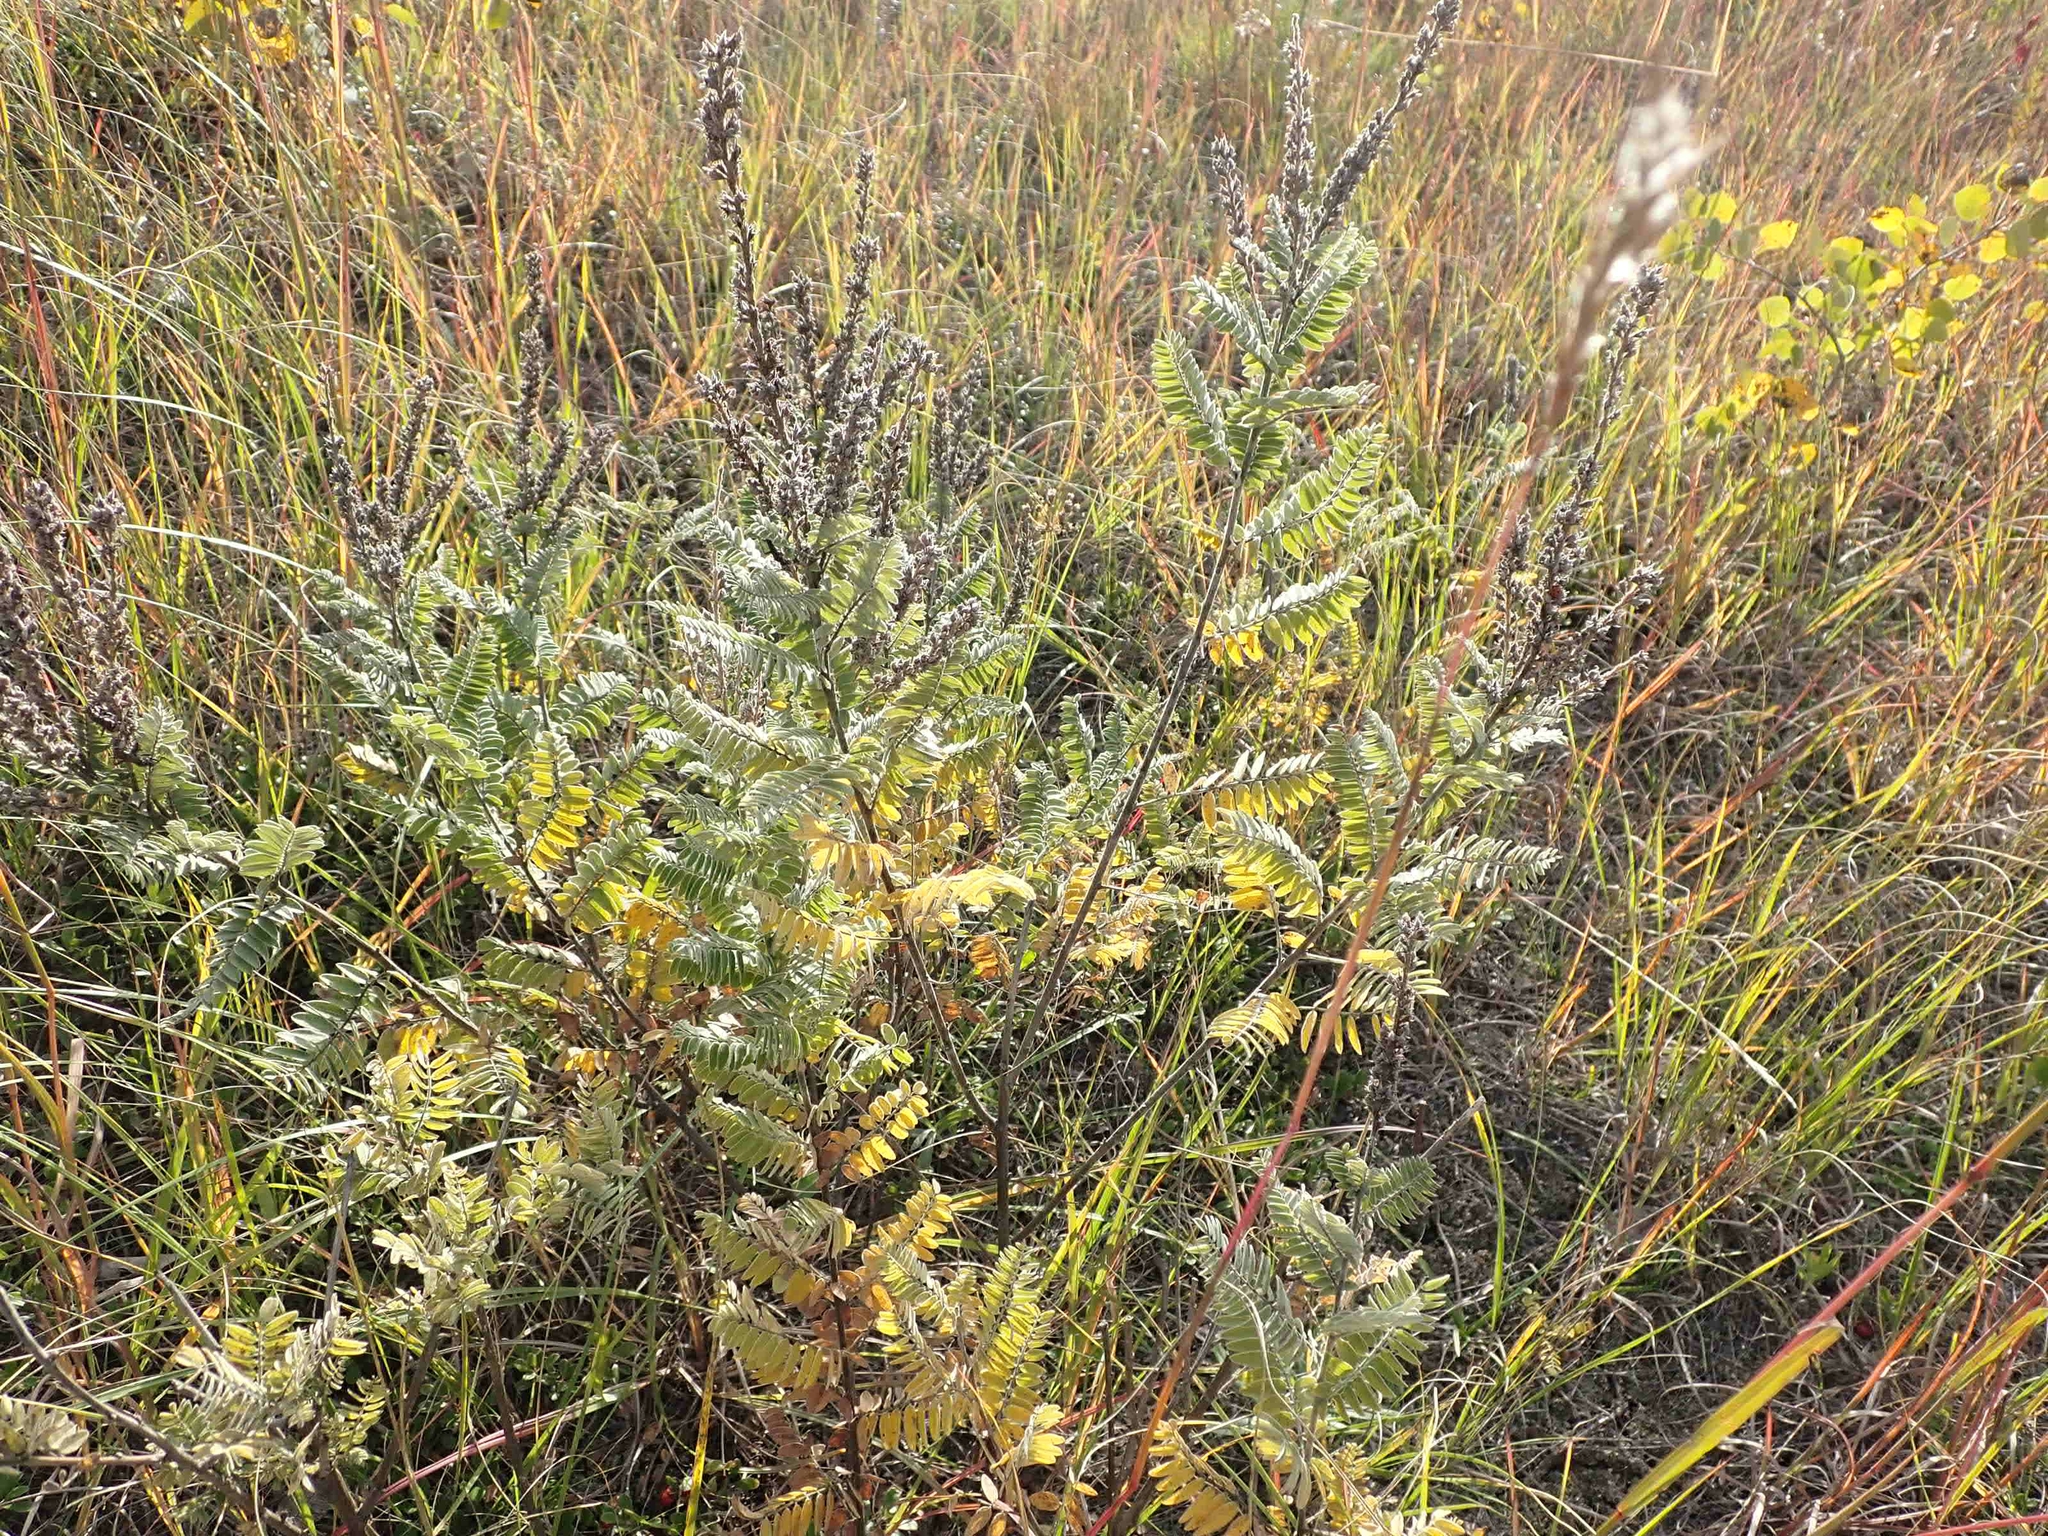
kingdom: Plantae
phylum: Tracheophyta
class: Magnoliopsida
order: Fabales
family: Fabaceae
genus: Amorpha
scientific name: Amorpha canescens
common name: Leadplant
